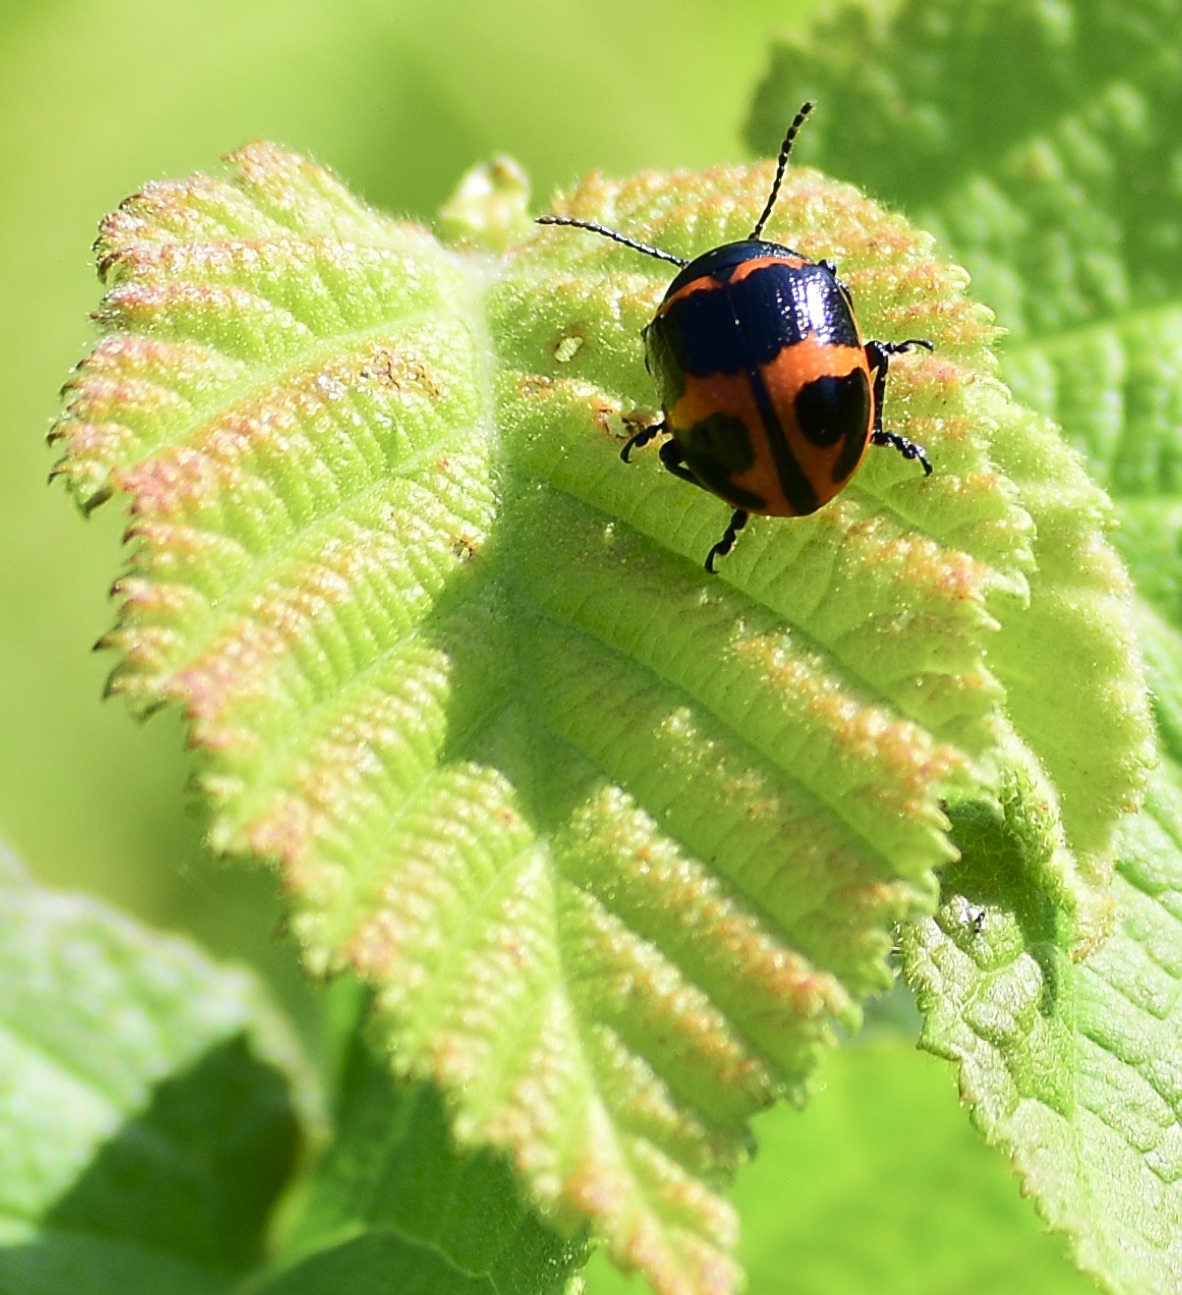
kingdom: Animalia
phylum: Arthropoda
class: Insecta
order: Coleoptera
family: Chrysomelidae
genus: Labidomera
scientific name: Labidomera clivicollis
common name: Swamp milkweed leaf beetle
